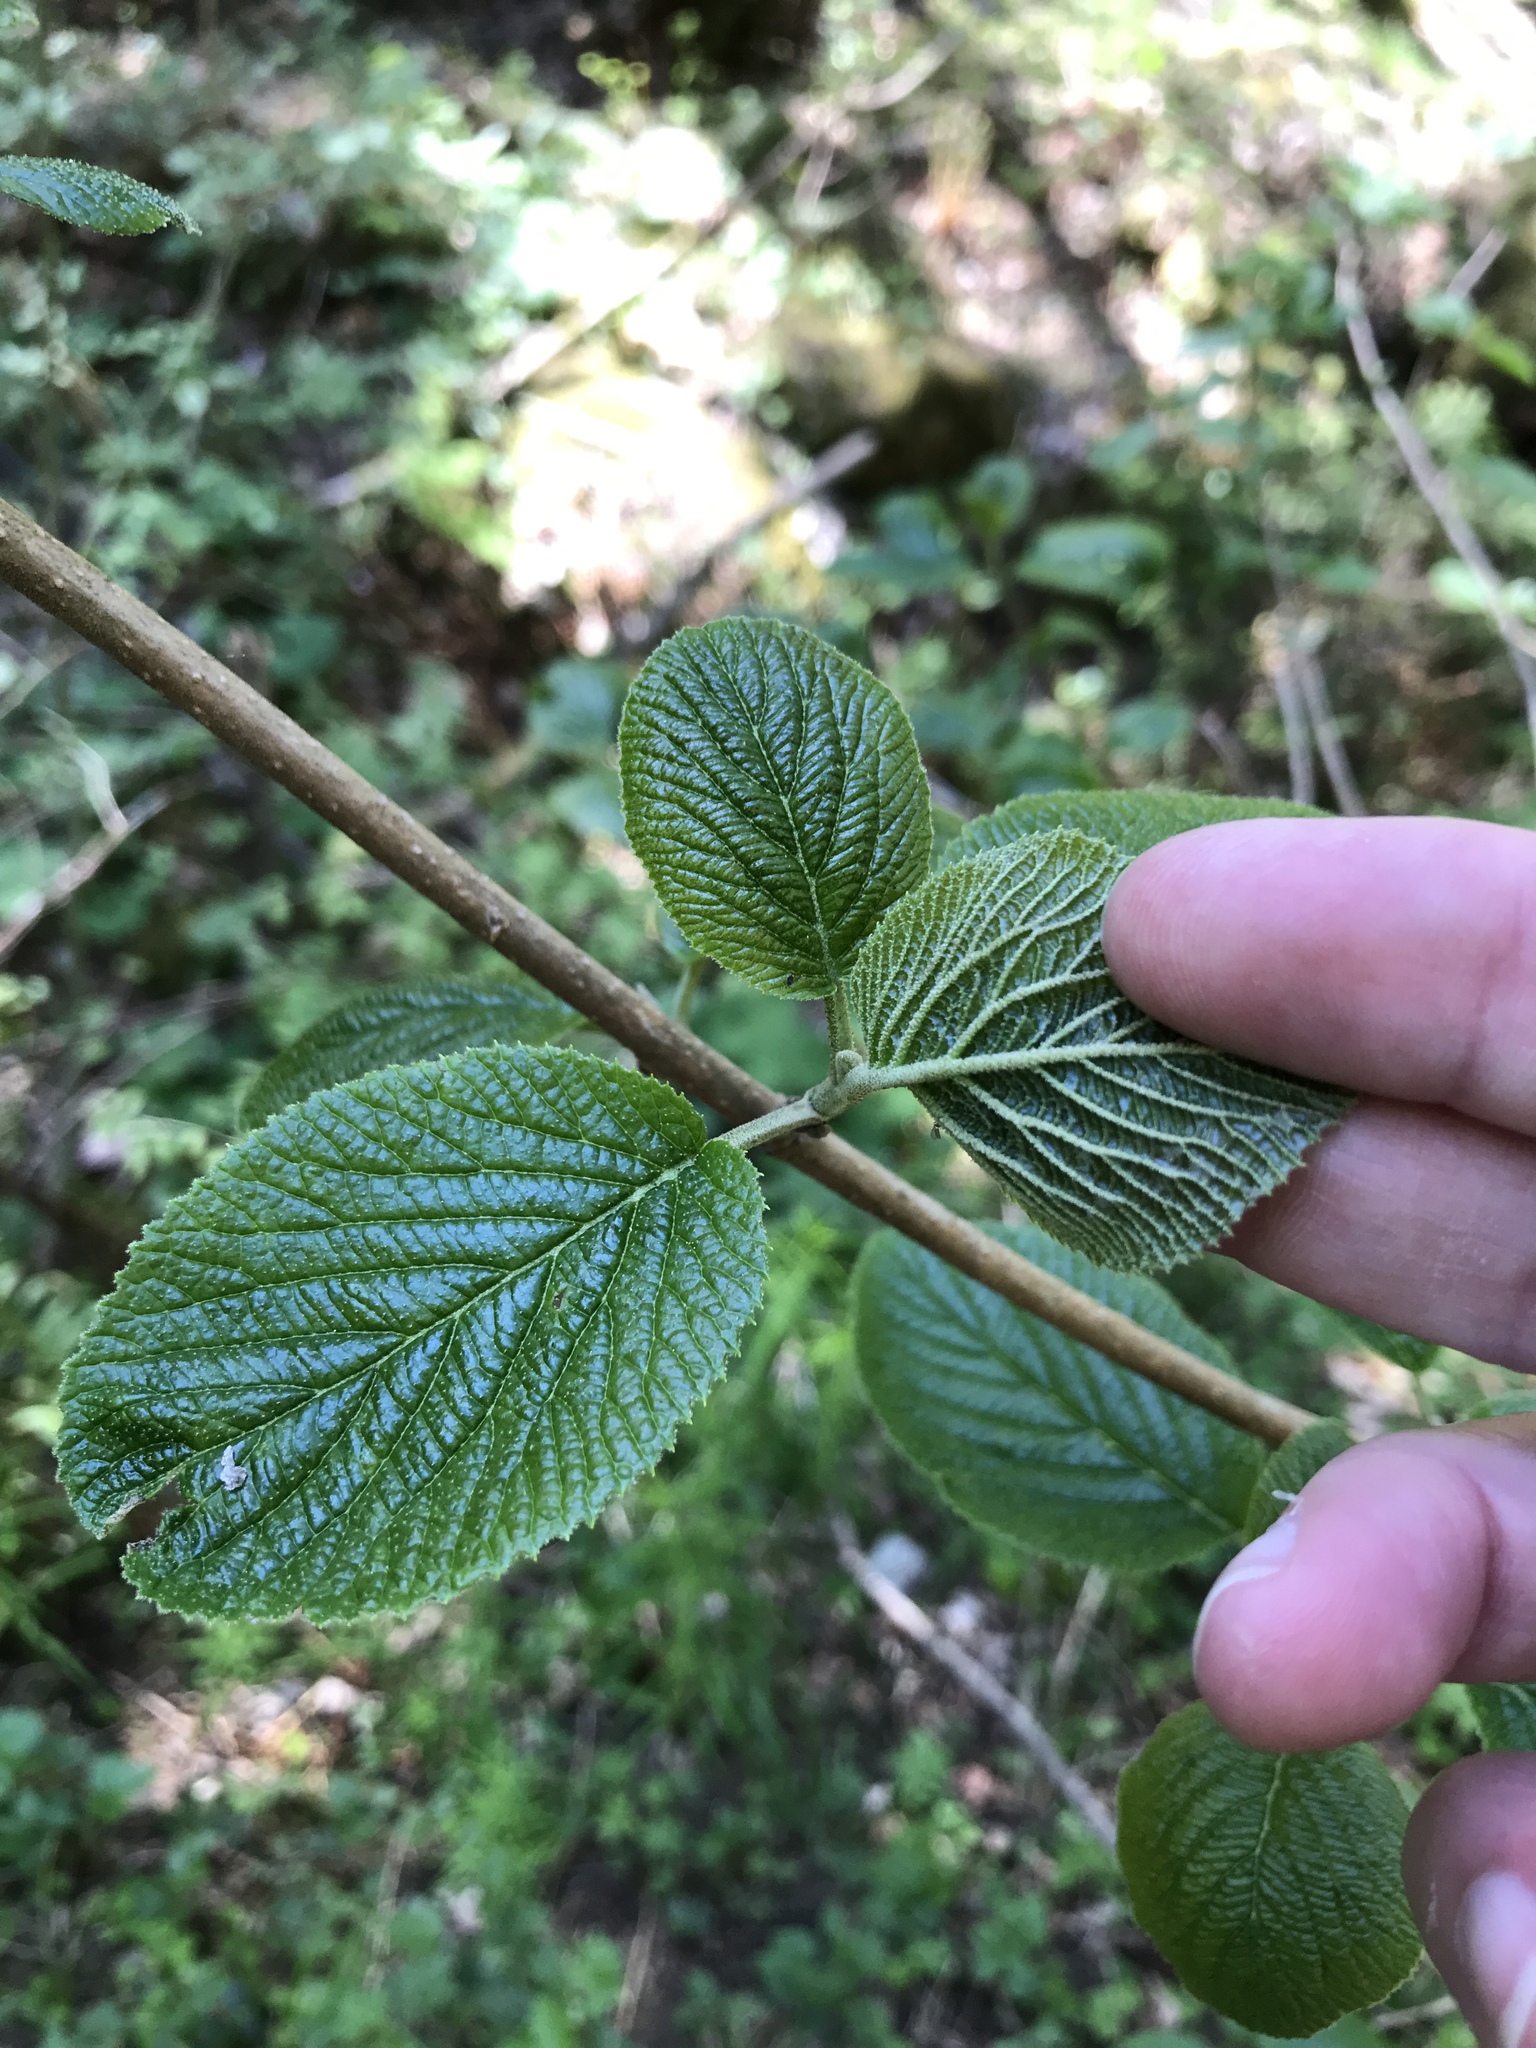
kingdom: Plantae
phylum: Tracheophyta
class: Magnoliopsida
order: Dipsacales
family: Viburnaceae
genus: Viburnum
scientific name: Viburnum lantana
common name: Wayfaring tree
